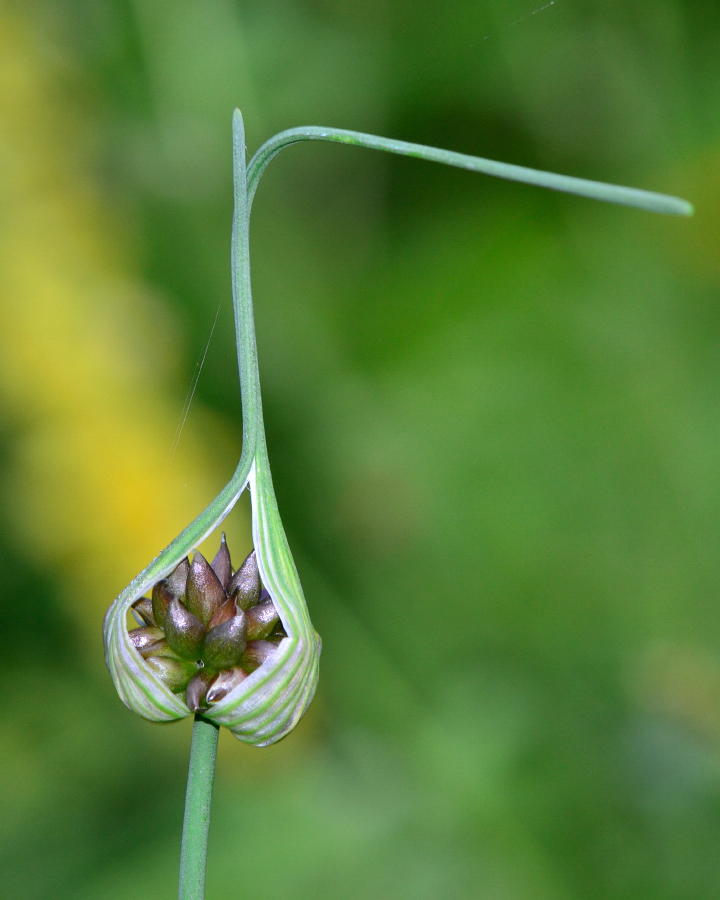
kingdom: Plantae
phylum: Tracheophyta
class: Liliopsida
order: Asparagales
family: Amaryllidaceae
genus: Allium
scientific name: Allium oleraceum
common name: Field garlic
